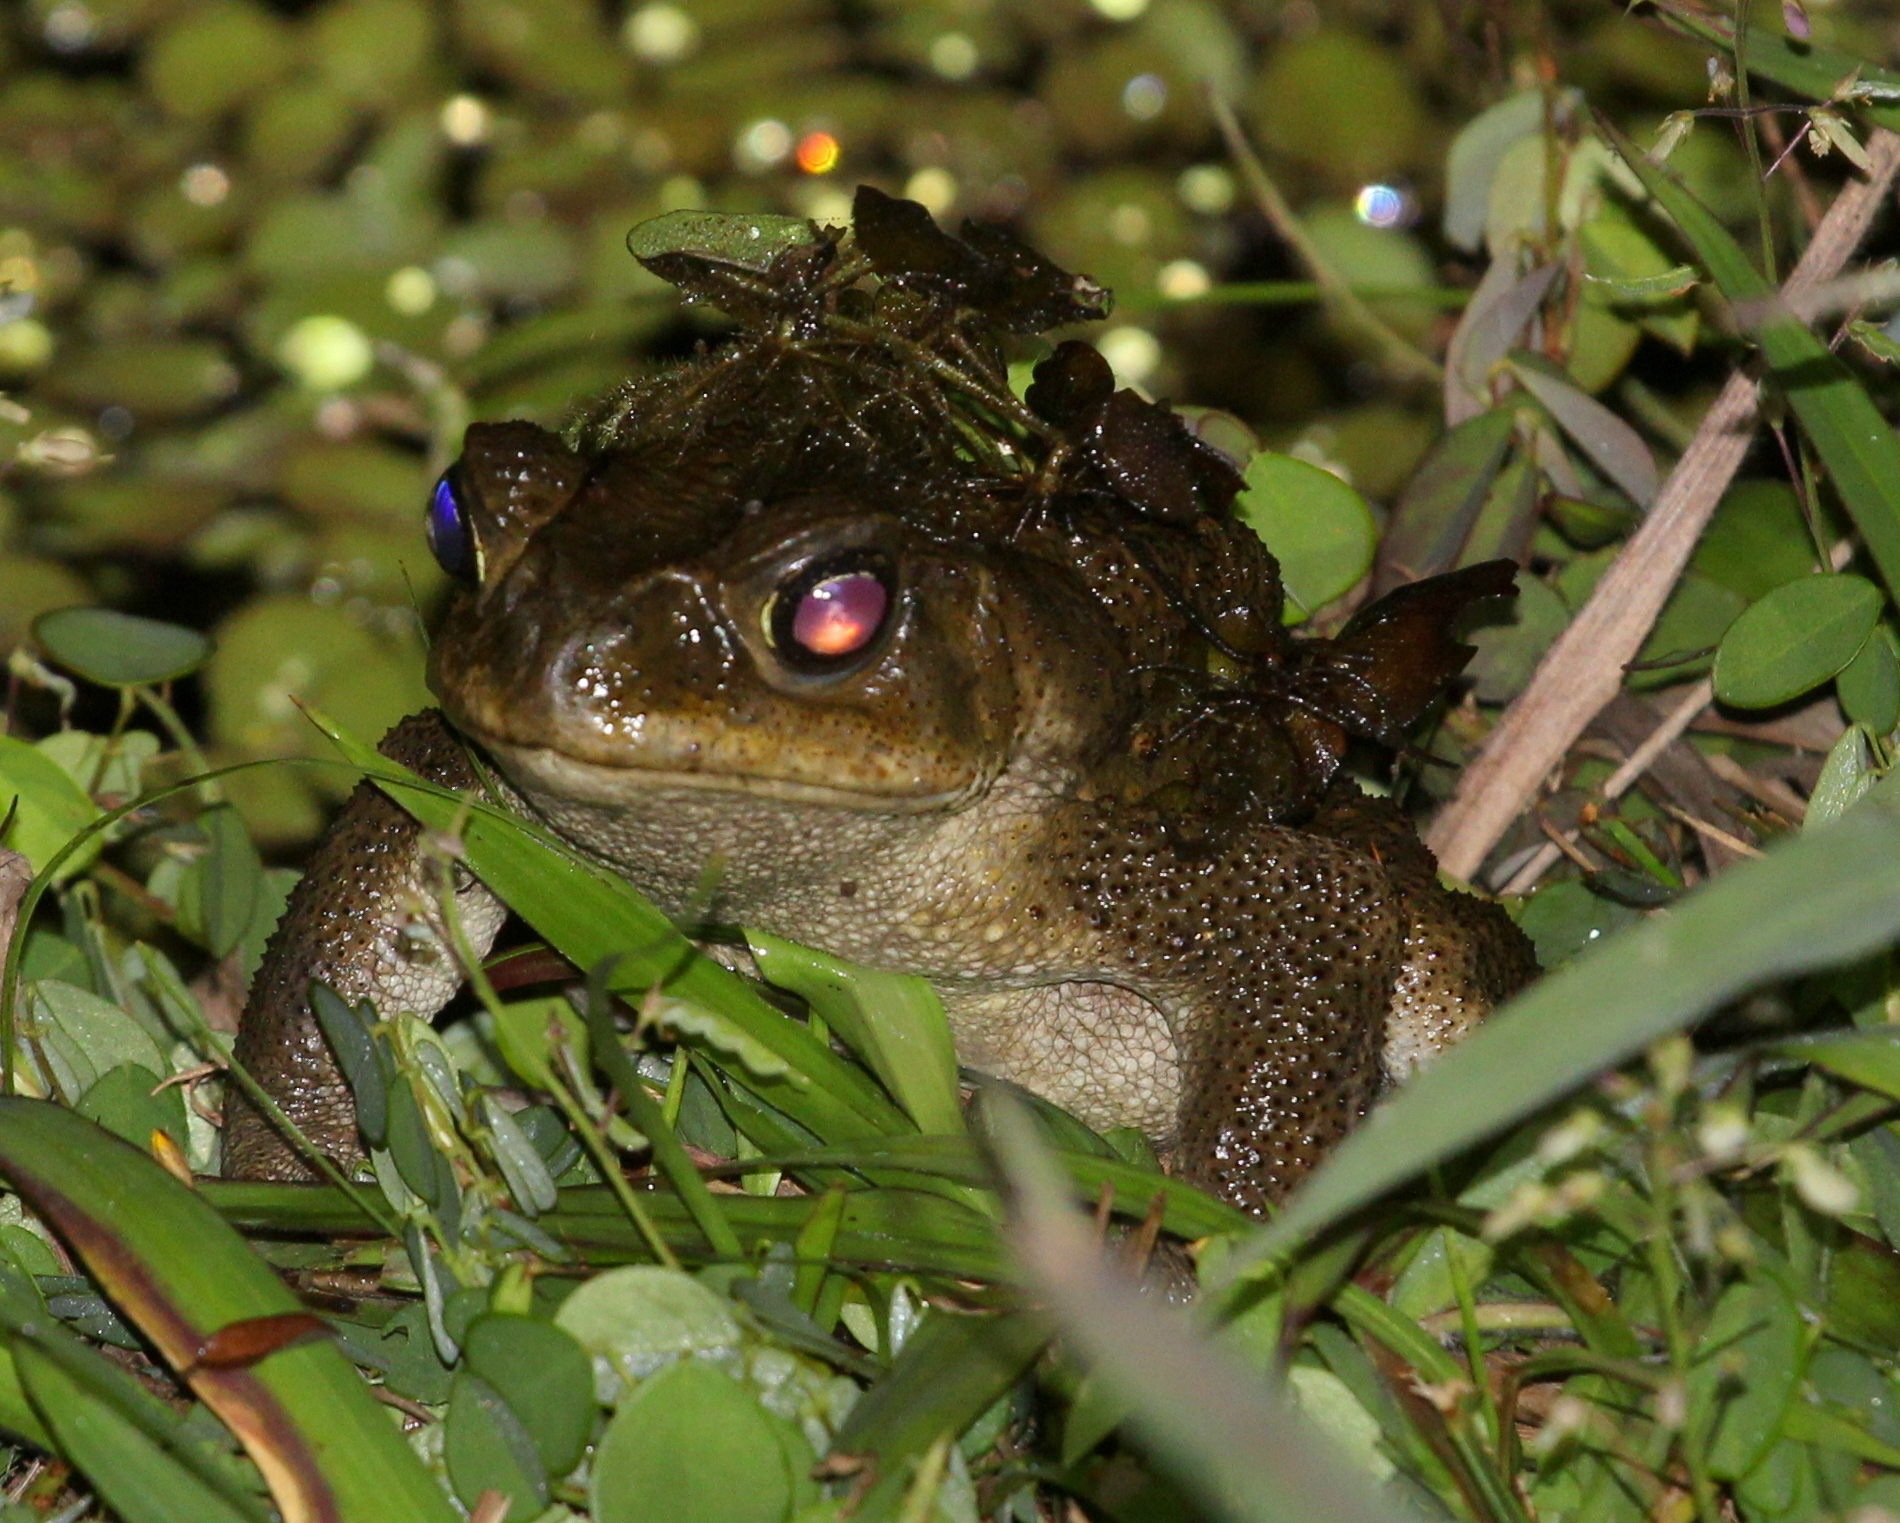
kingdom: Animalia
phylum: Chordata
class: Amphibia
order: Anura
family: Bufonidae
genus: Rhinella
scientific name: Rhinella
